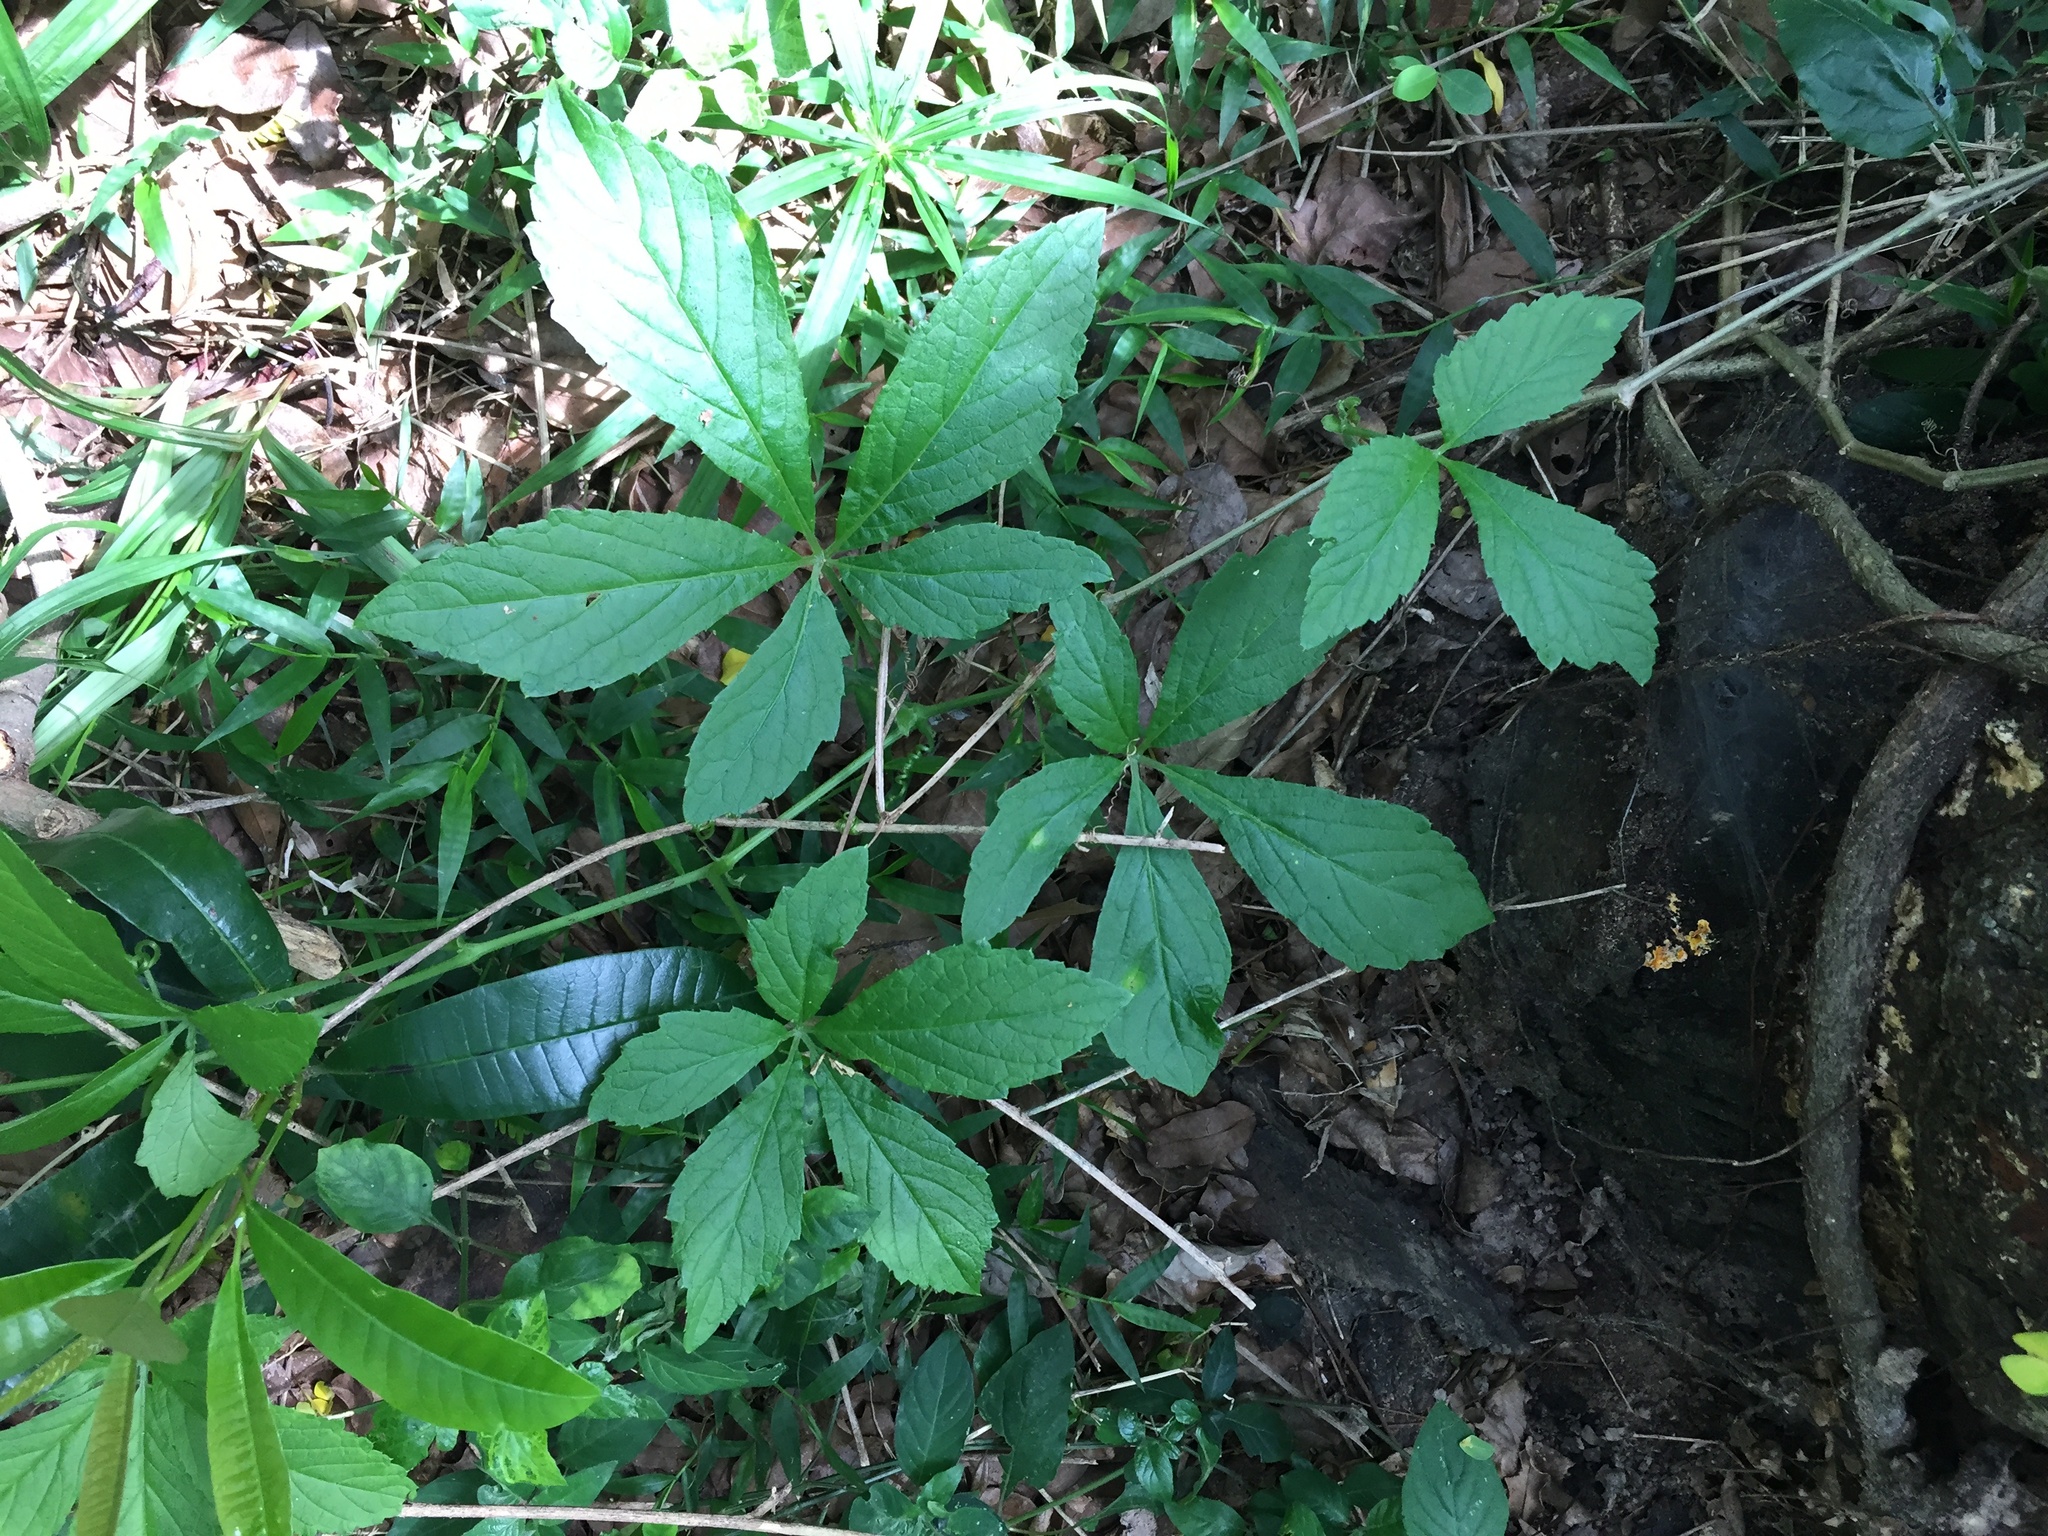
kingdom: Plantae
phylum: Tracheophyta
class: Magnoliopsida
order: Vitales
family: Vitaceae
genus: Cyphostemma
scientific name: Cyphostemma hypoleucum
